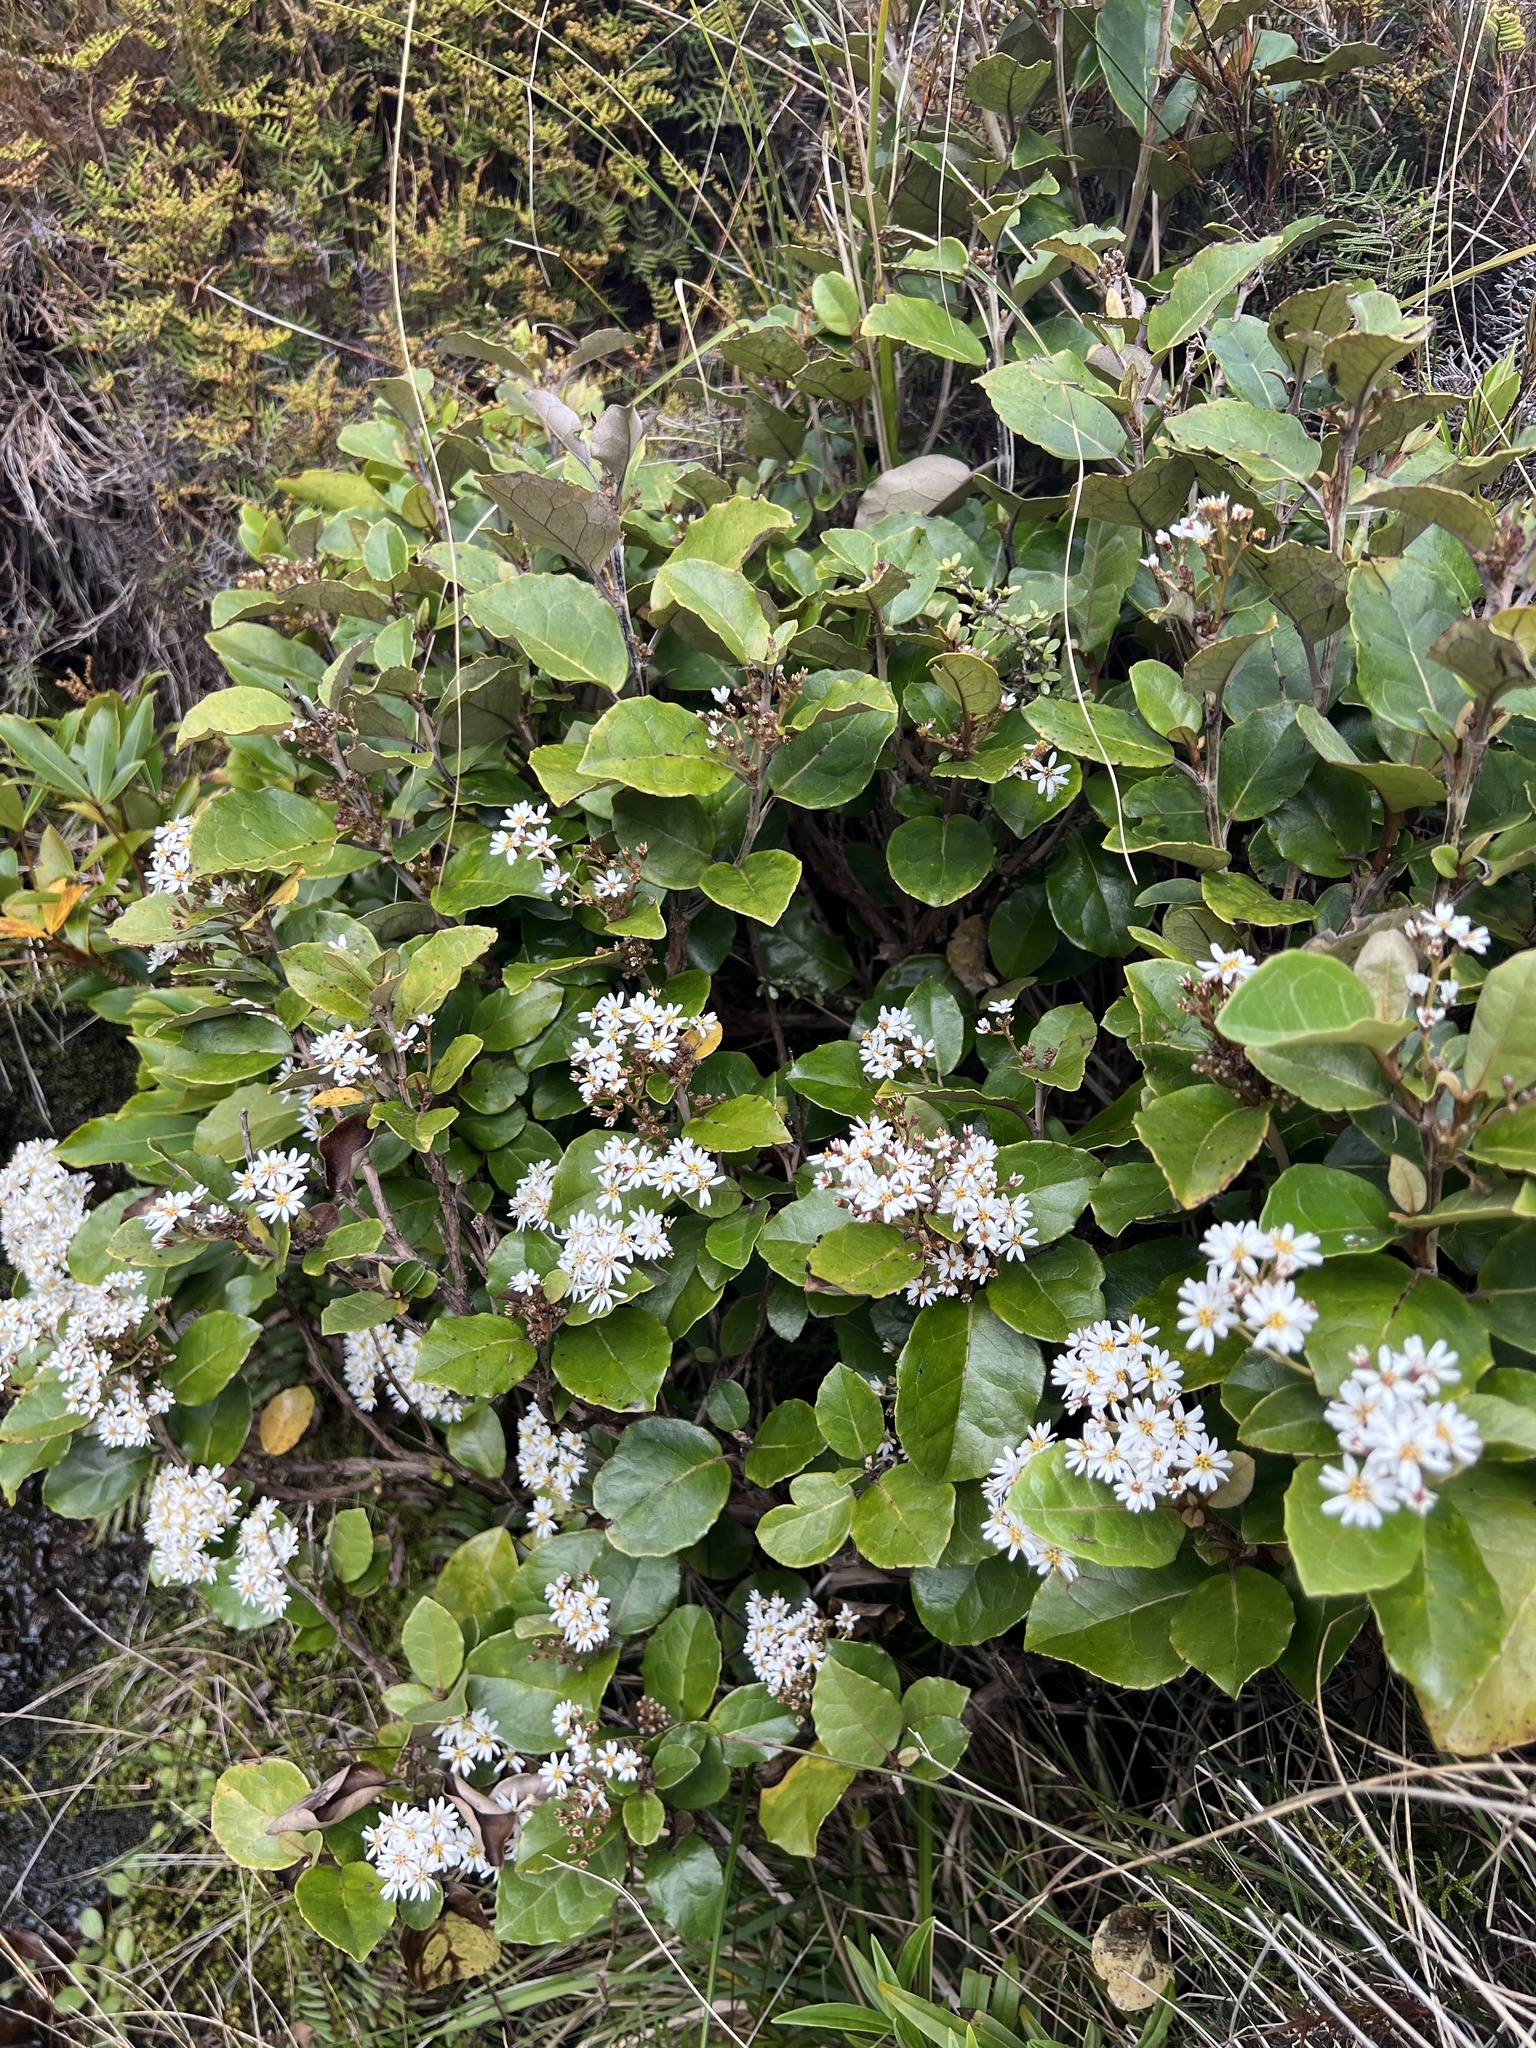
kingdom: Plantae
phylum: Tracheophyta
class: Magnoliopsida
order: Asterales
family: Asteraceae
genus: Olearia
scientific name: Olearia arborescens
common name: Glossy tree daisy
